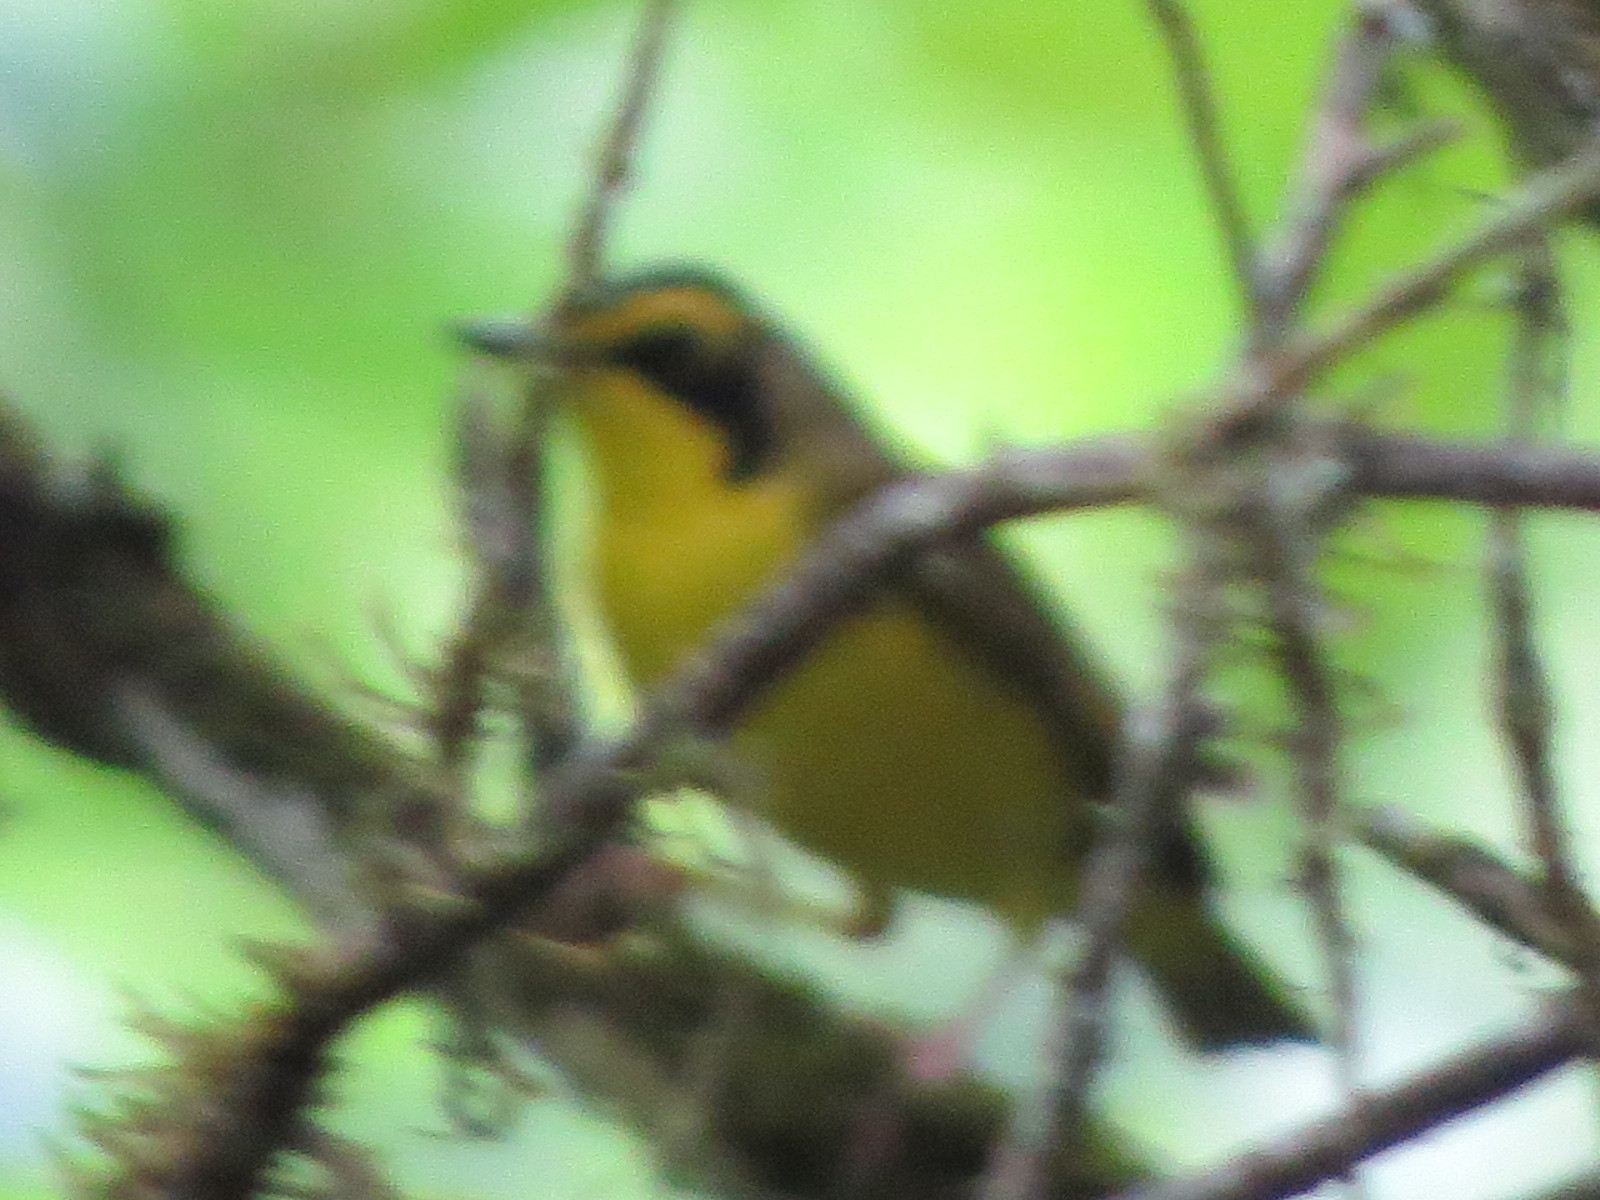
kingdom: Animalia
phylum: Chordata
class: Aves
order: Passeriformes
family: Parulidae
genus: Geothlypis
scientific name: Geothlypis formosa
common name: Kentucky warbler
